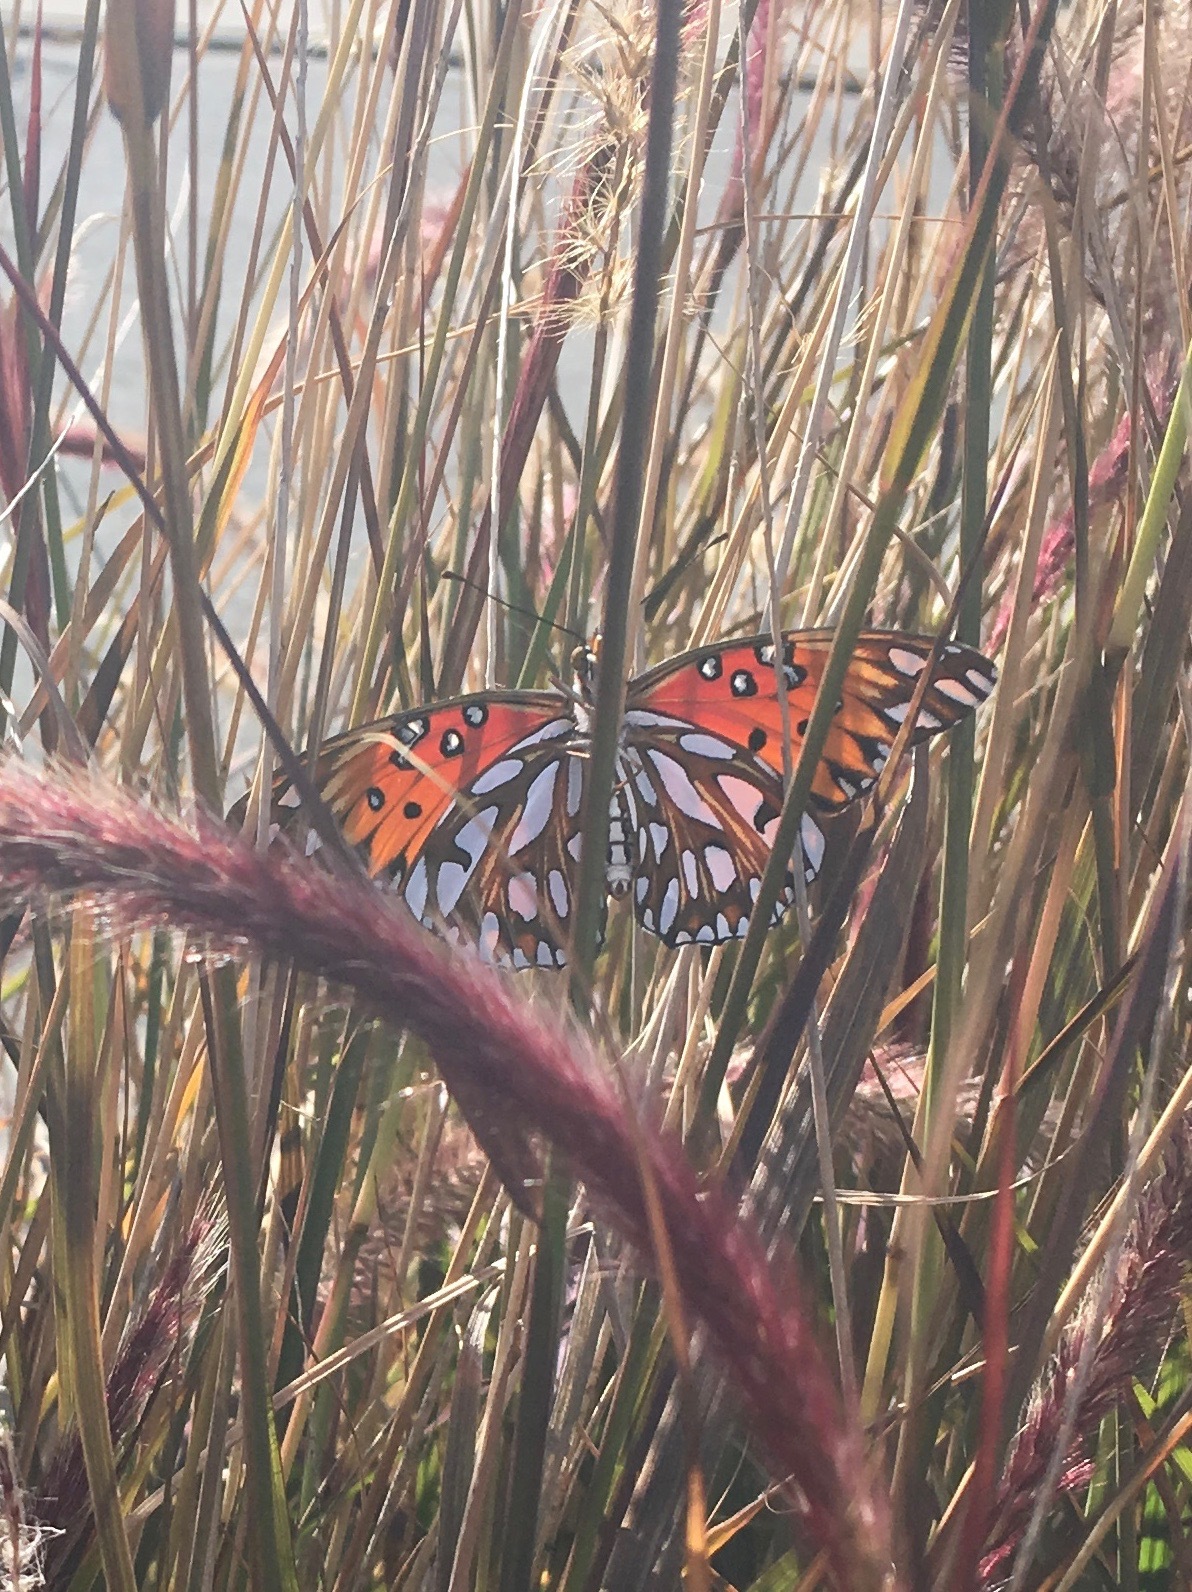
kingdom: Animalia
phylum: Arthropoda
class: Insecta
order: Lepidoptera
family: Nymphalidae
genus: Dione
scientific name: Dione vanillae
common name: Gulf fritillary
